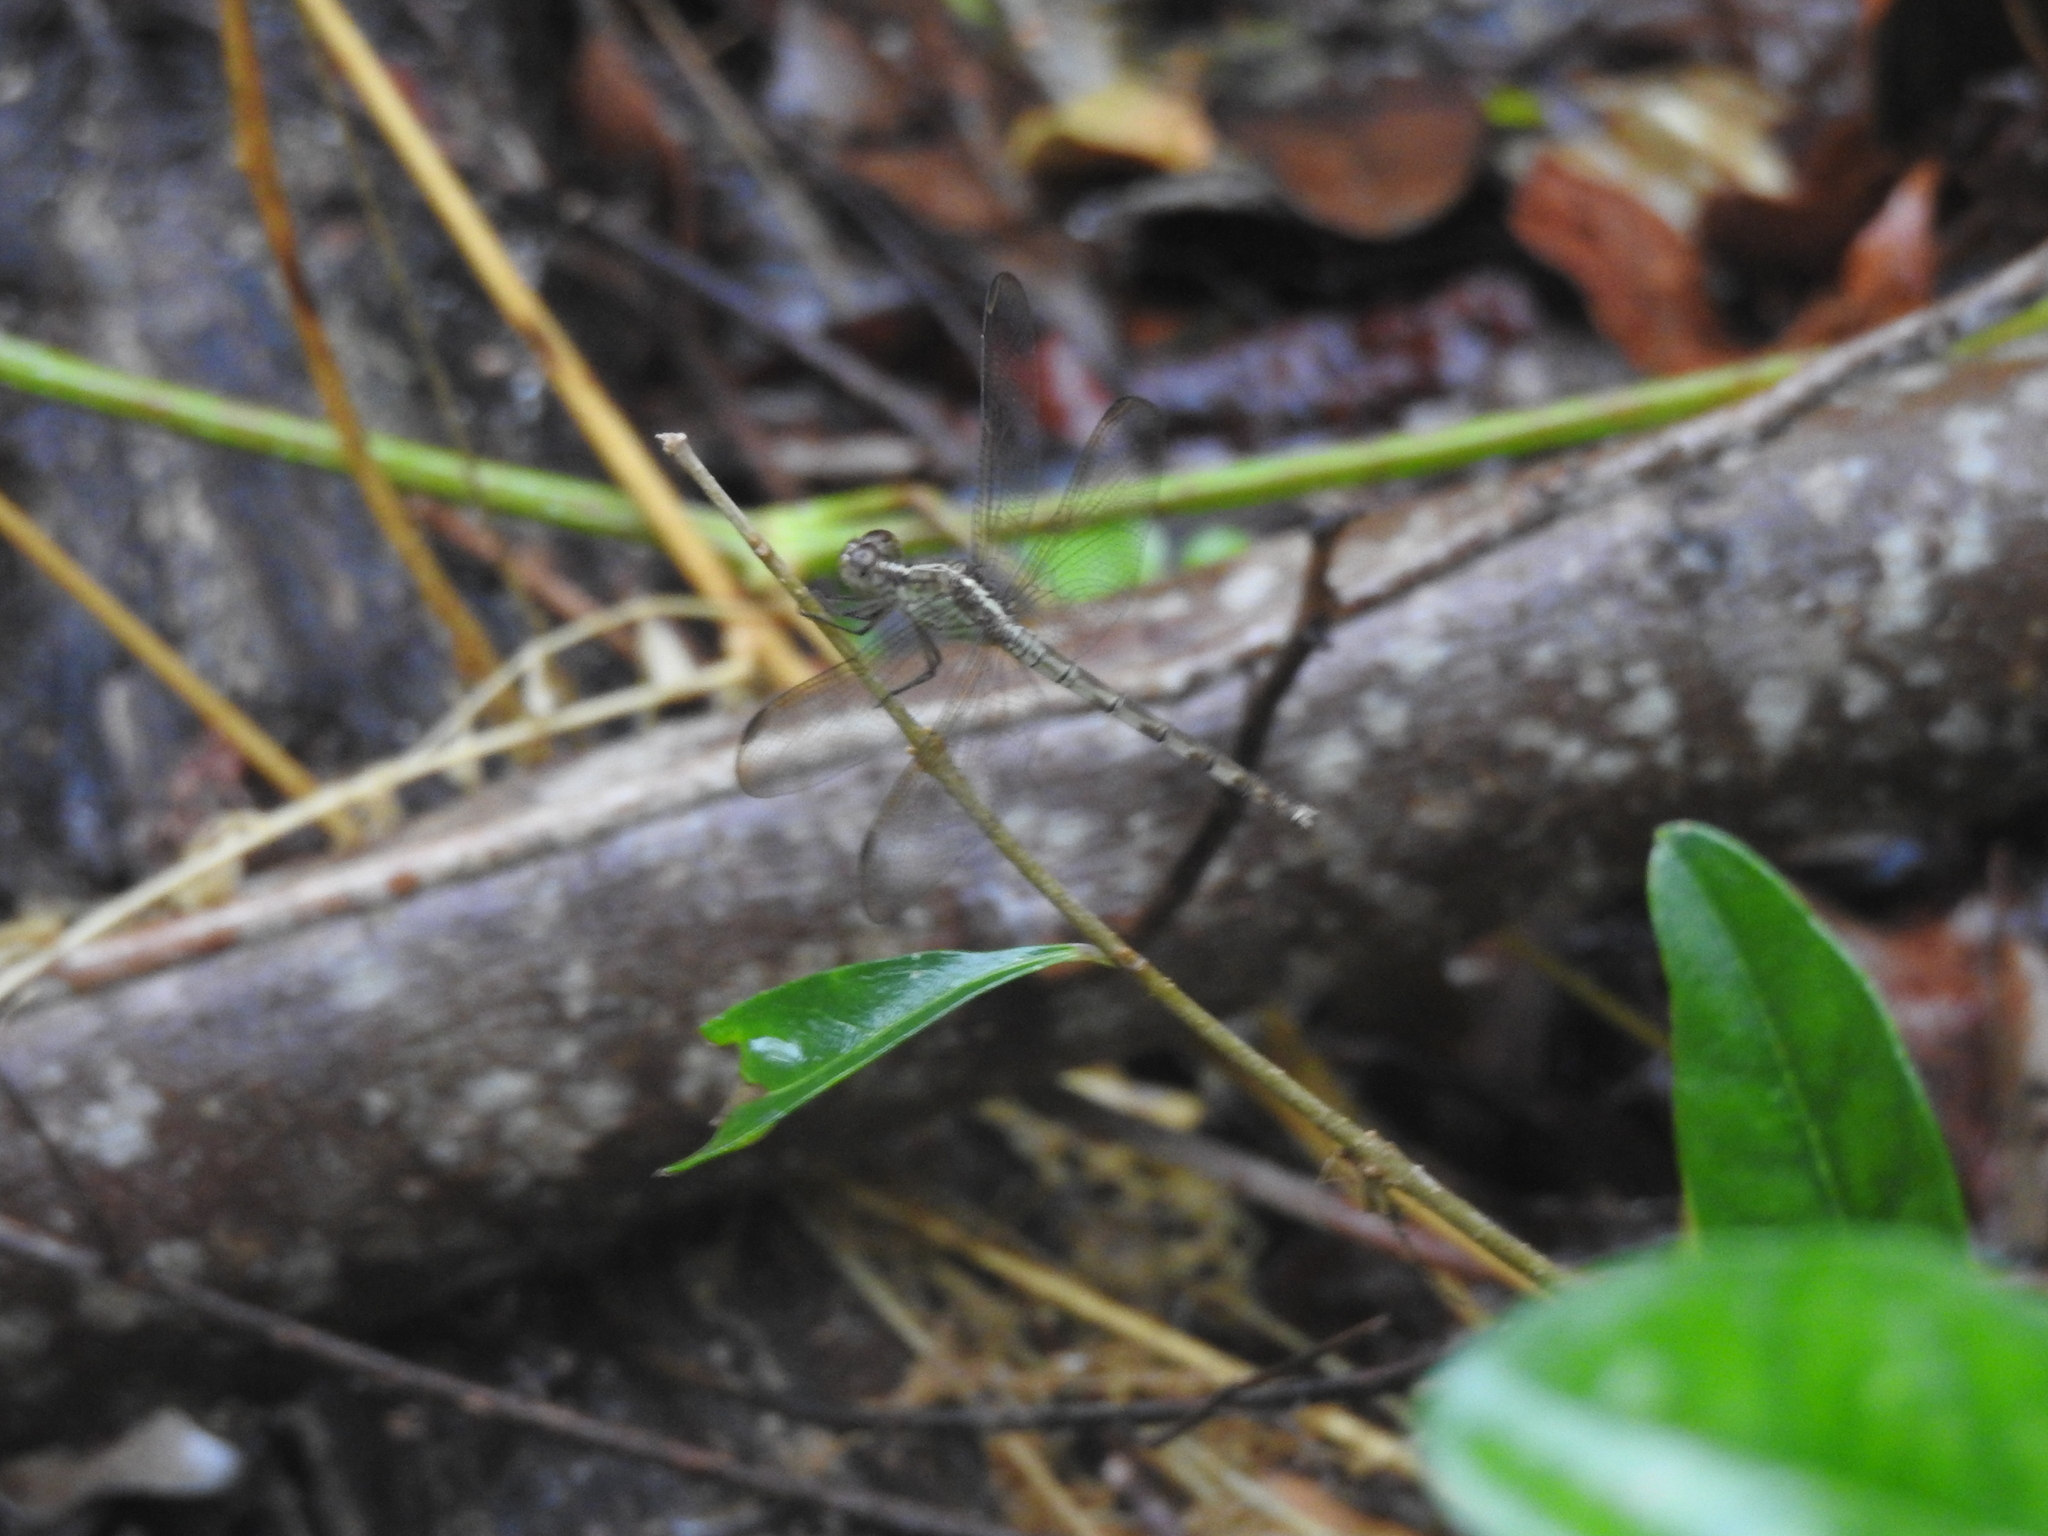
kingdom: Animalia
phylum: Arthropoda
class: Insecta
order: Odonata
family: Libellulidae
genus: Erythrodiplax
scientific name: Erythrodiplax umbrata
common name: Band-winged dragonlet
